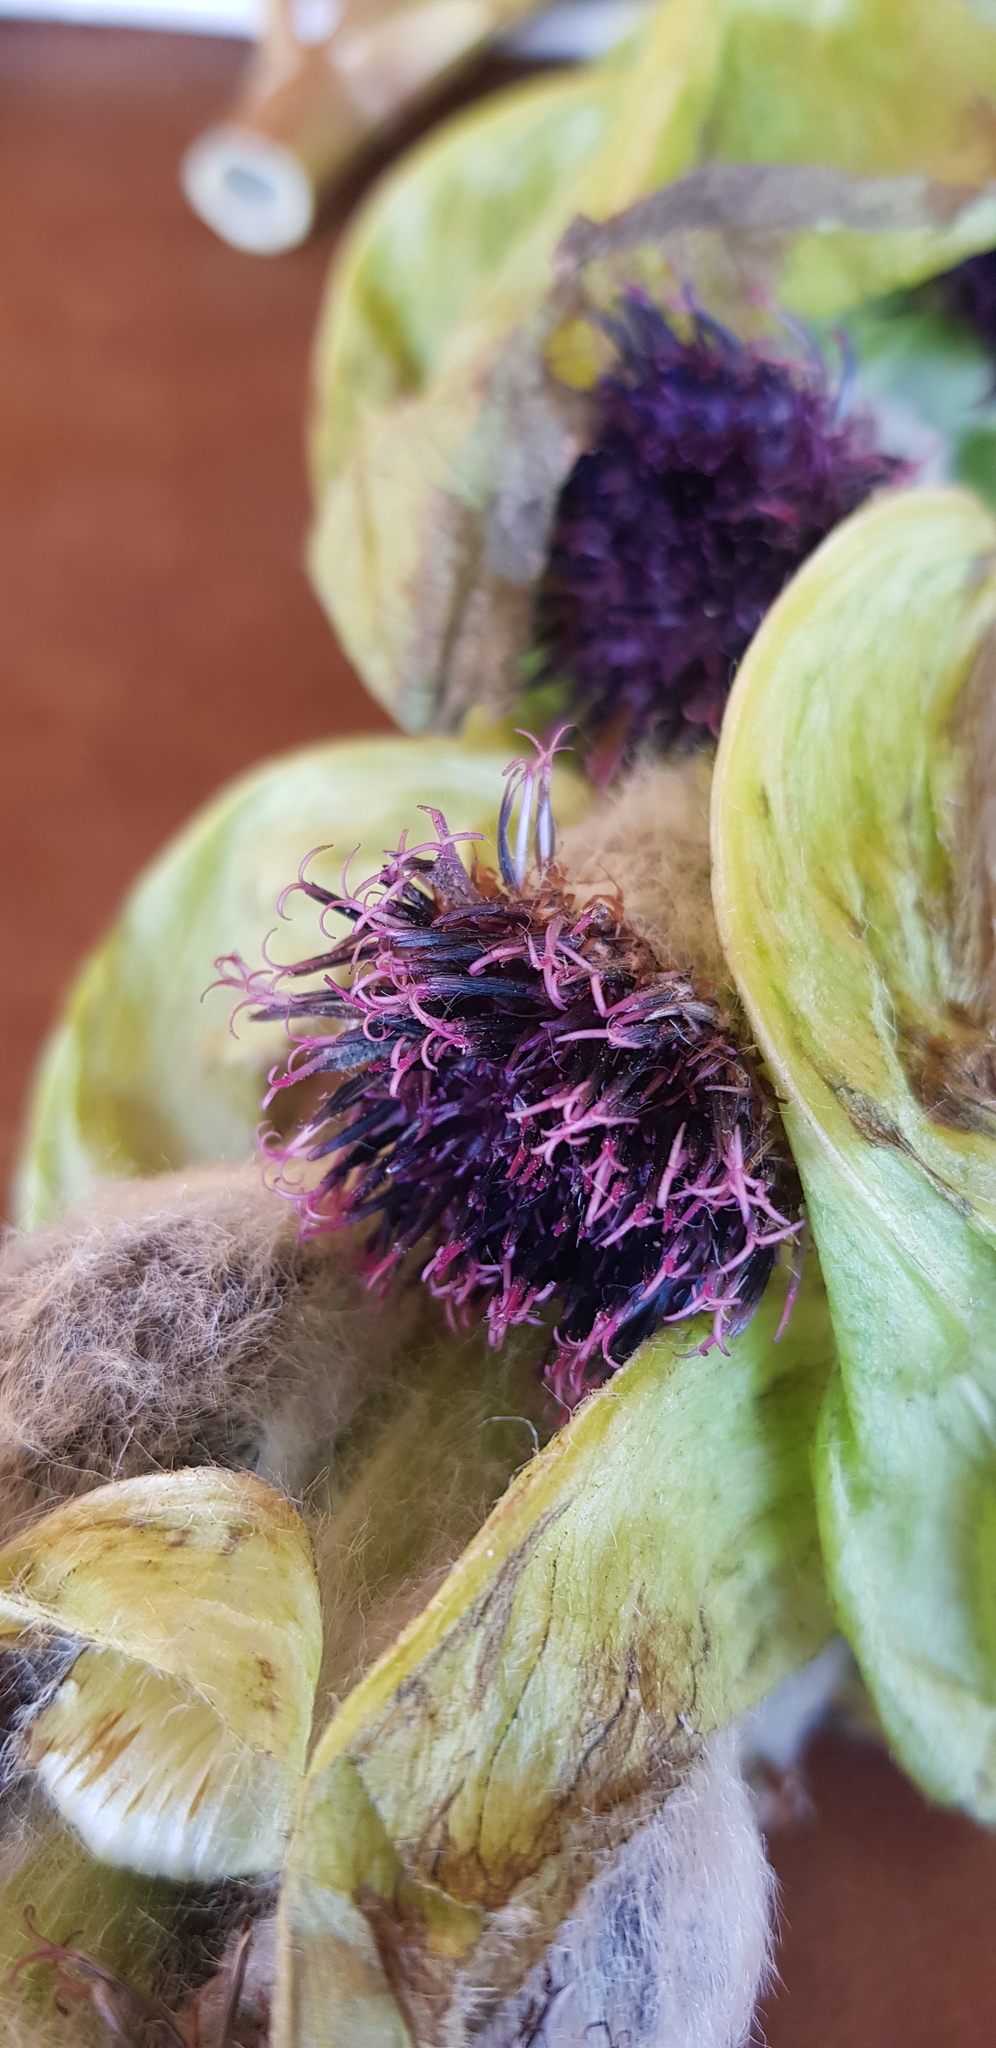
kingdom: Plantae
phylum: Tracheophyta
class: Magnoliopsida
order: Asterales
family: Asteraceae
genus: Saussurea
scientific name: Saussurea involucrata
